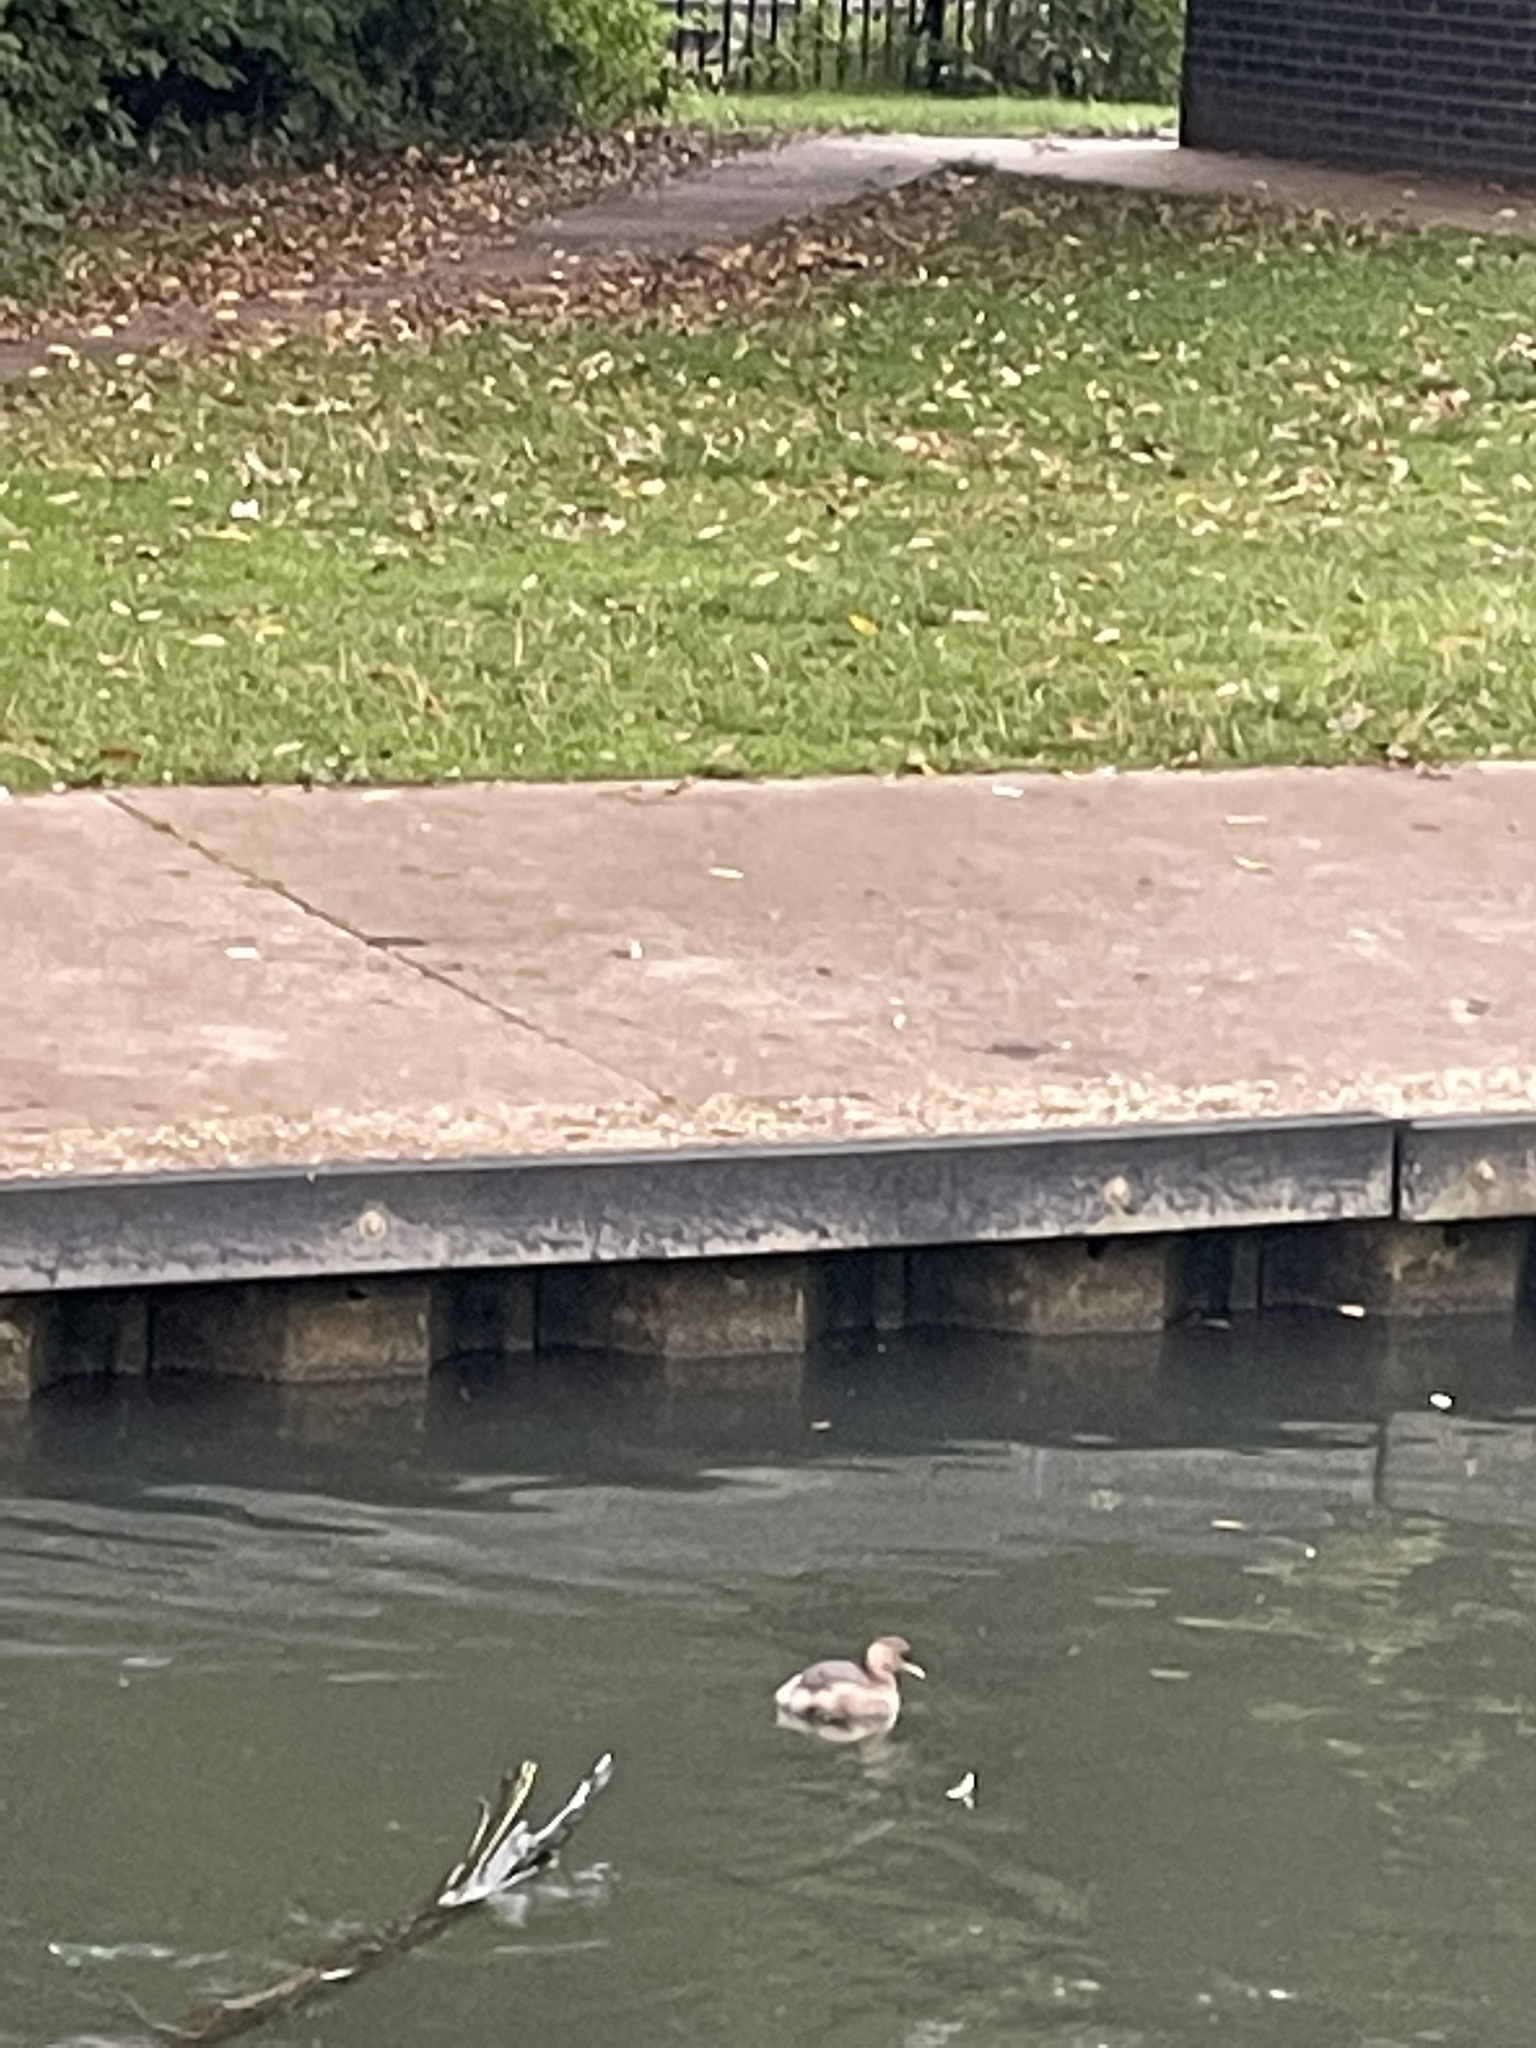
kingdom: Animalia
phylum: Chordata
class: Aves
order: Podicipediformes
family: Podicipedidae
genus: Tachybaptus
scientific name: Tachybaptus ruficollis
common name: Little grebe
